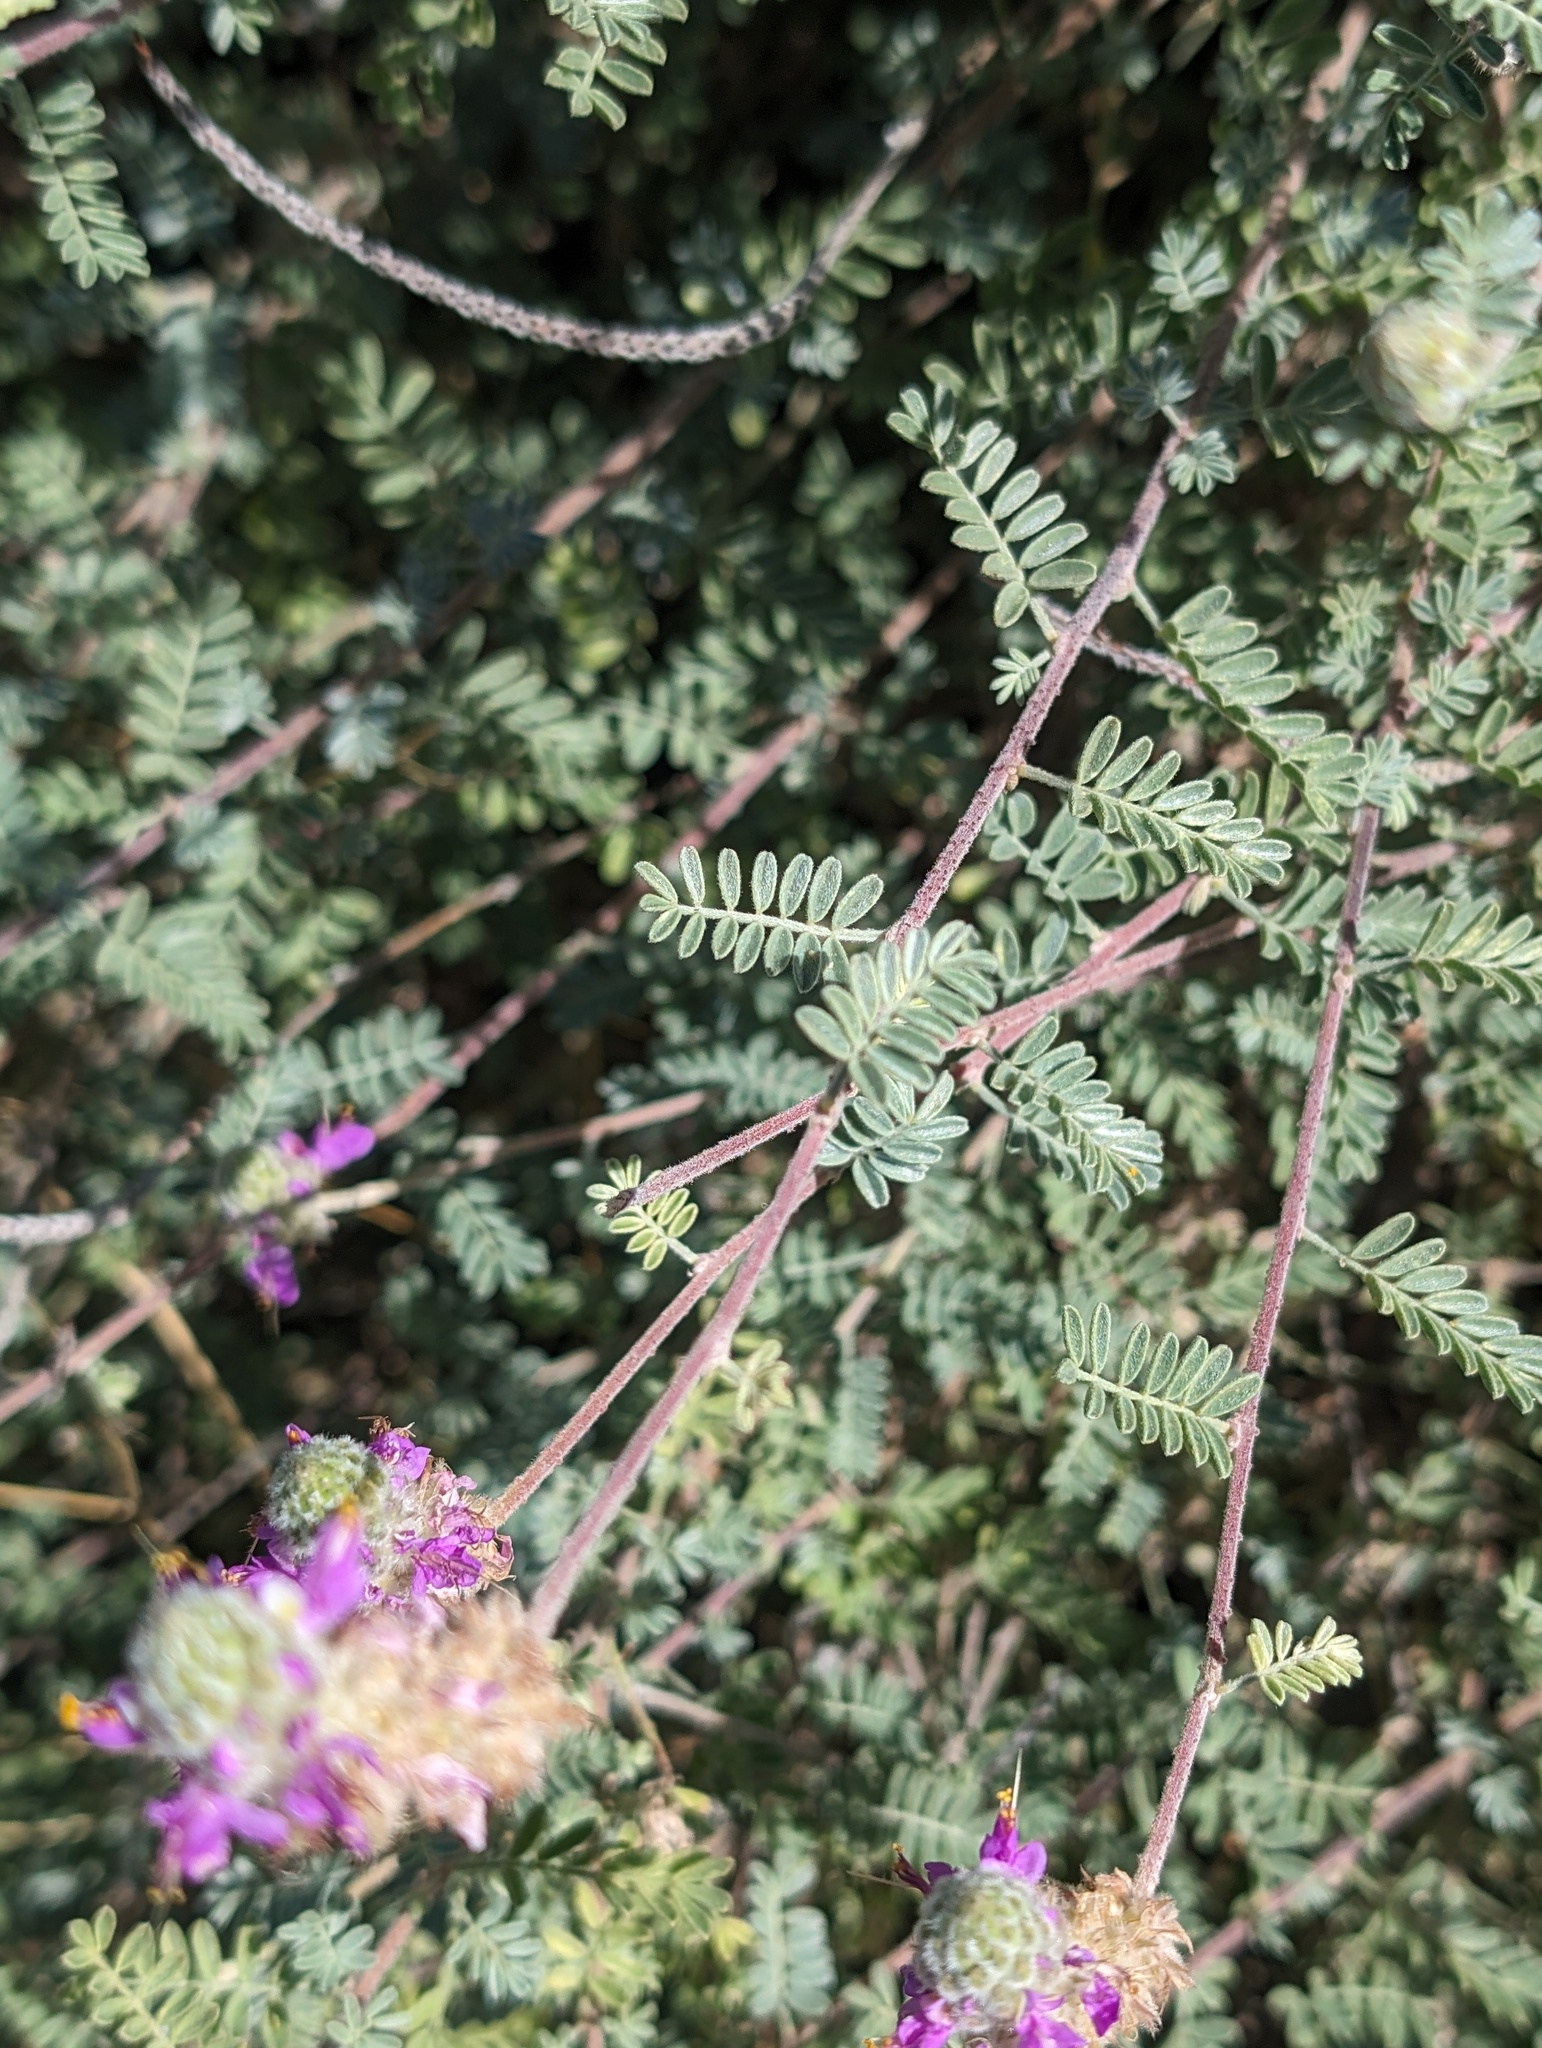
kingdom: Plantae
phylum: Tracheophyta
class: Magnoliopsida
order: Fabales
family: Fabaceae
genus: Dalea
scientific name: Dalea bicolor
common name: Silver prairie-clover
